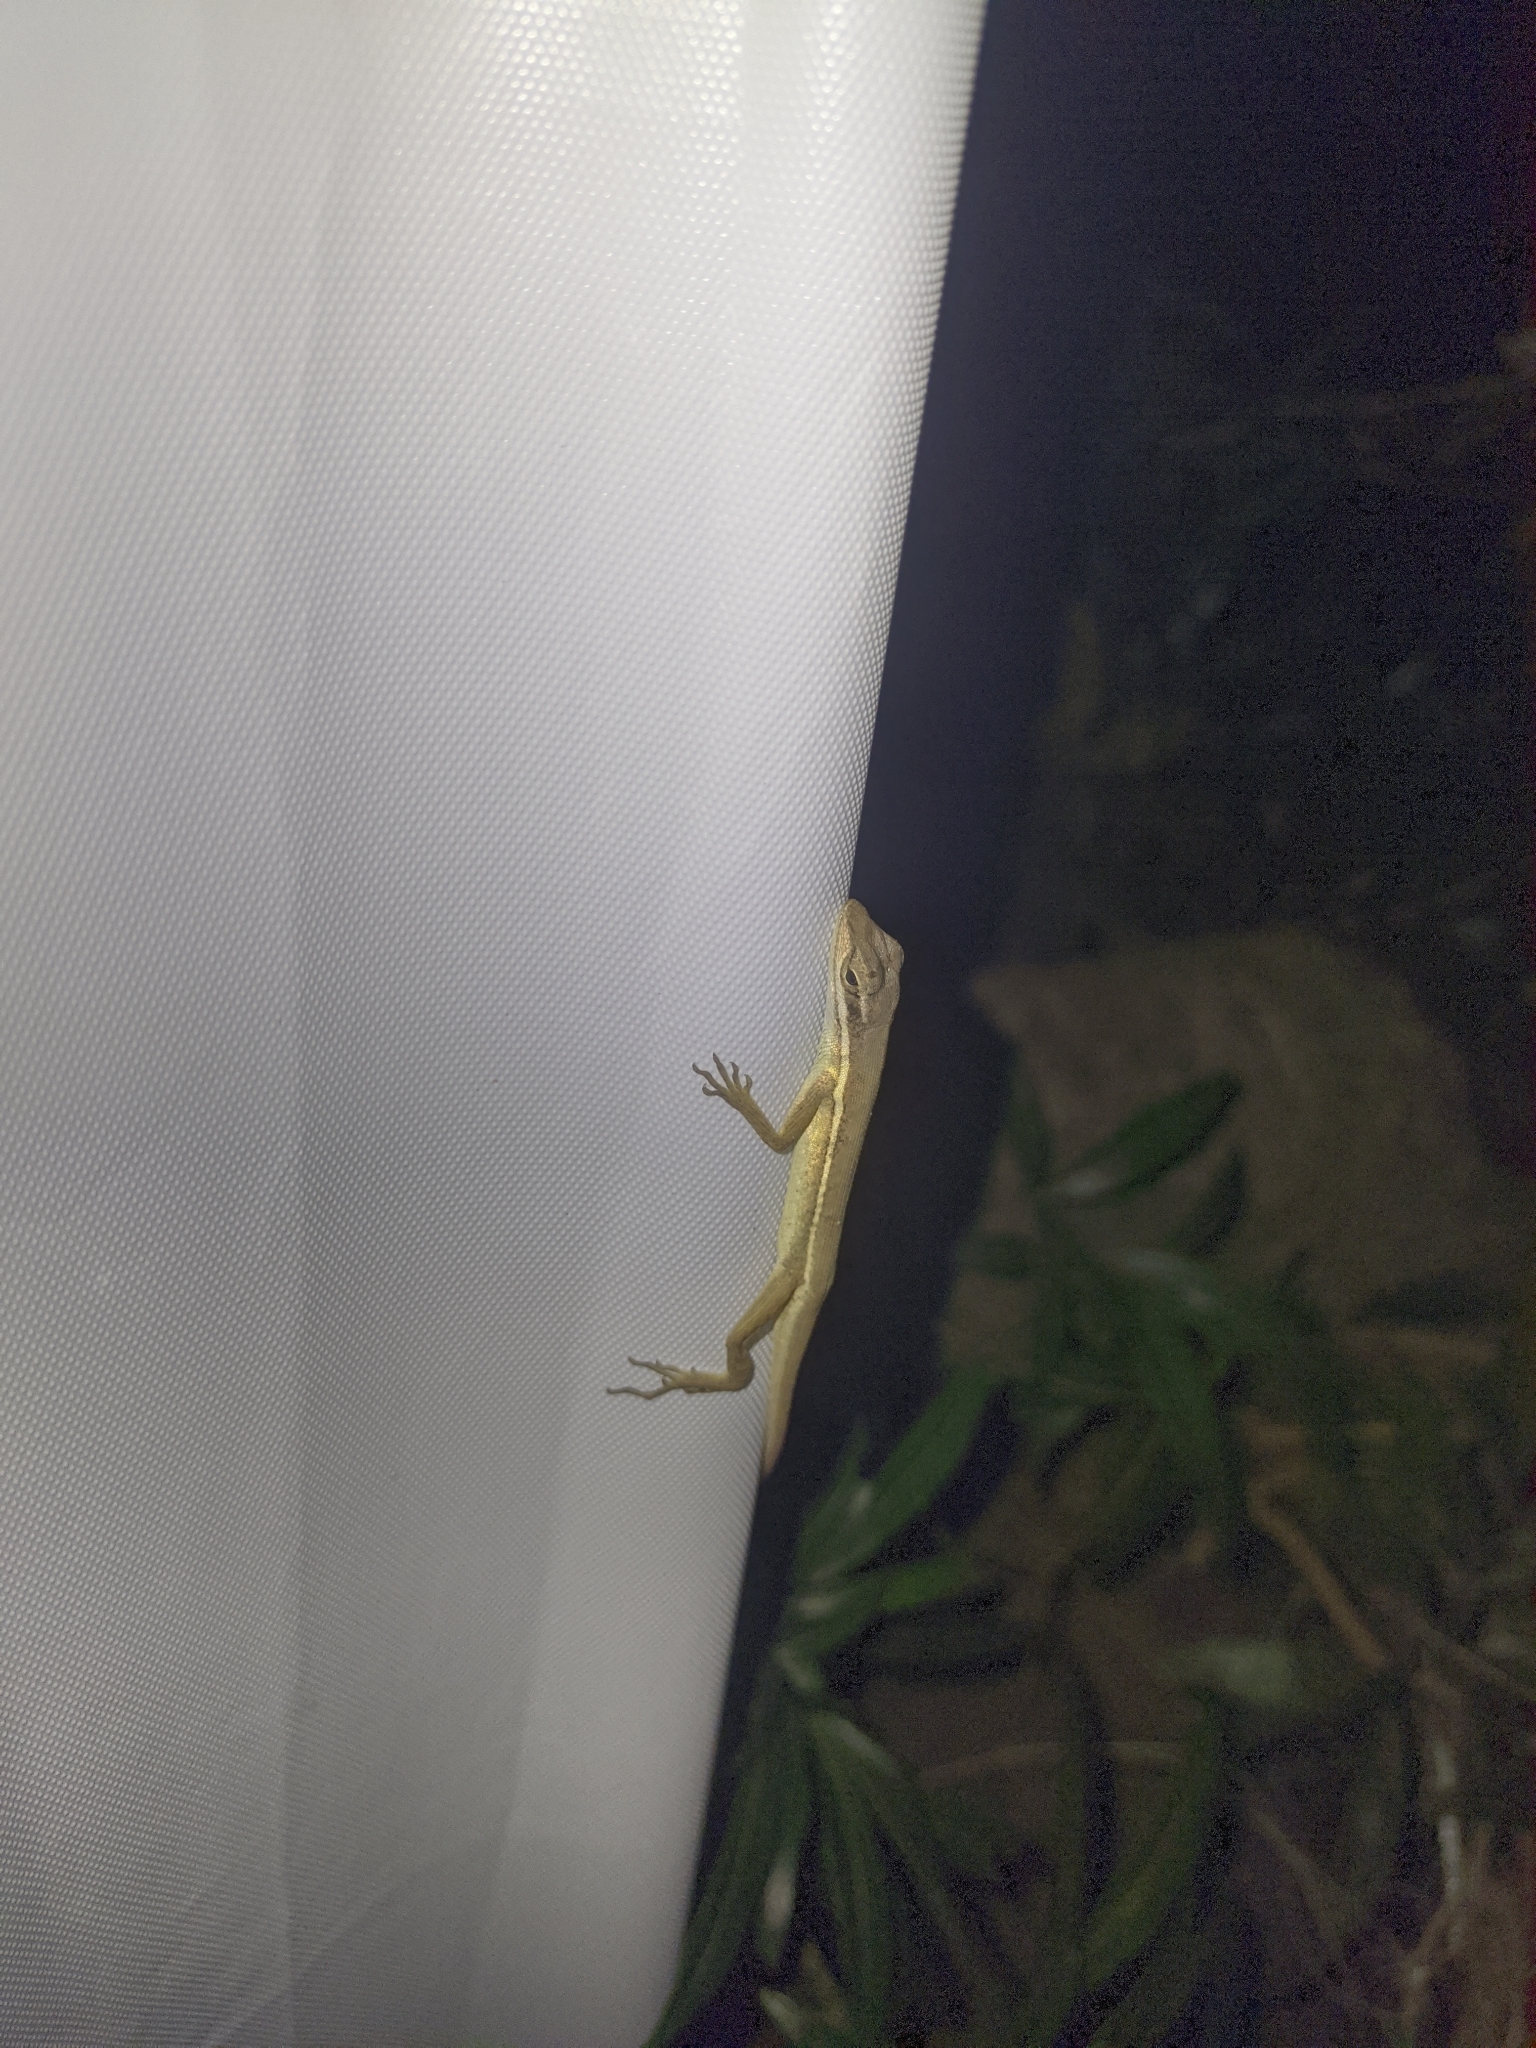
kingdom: Animalia
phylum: Chordata
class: Squamata
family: Dactyloidae
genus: Anolis
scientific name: Anolis auratus
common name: Grass anole
